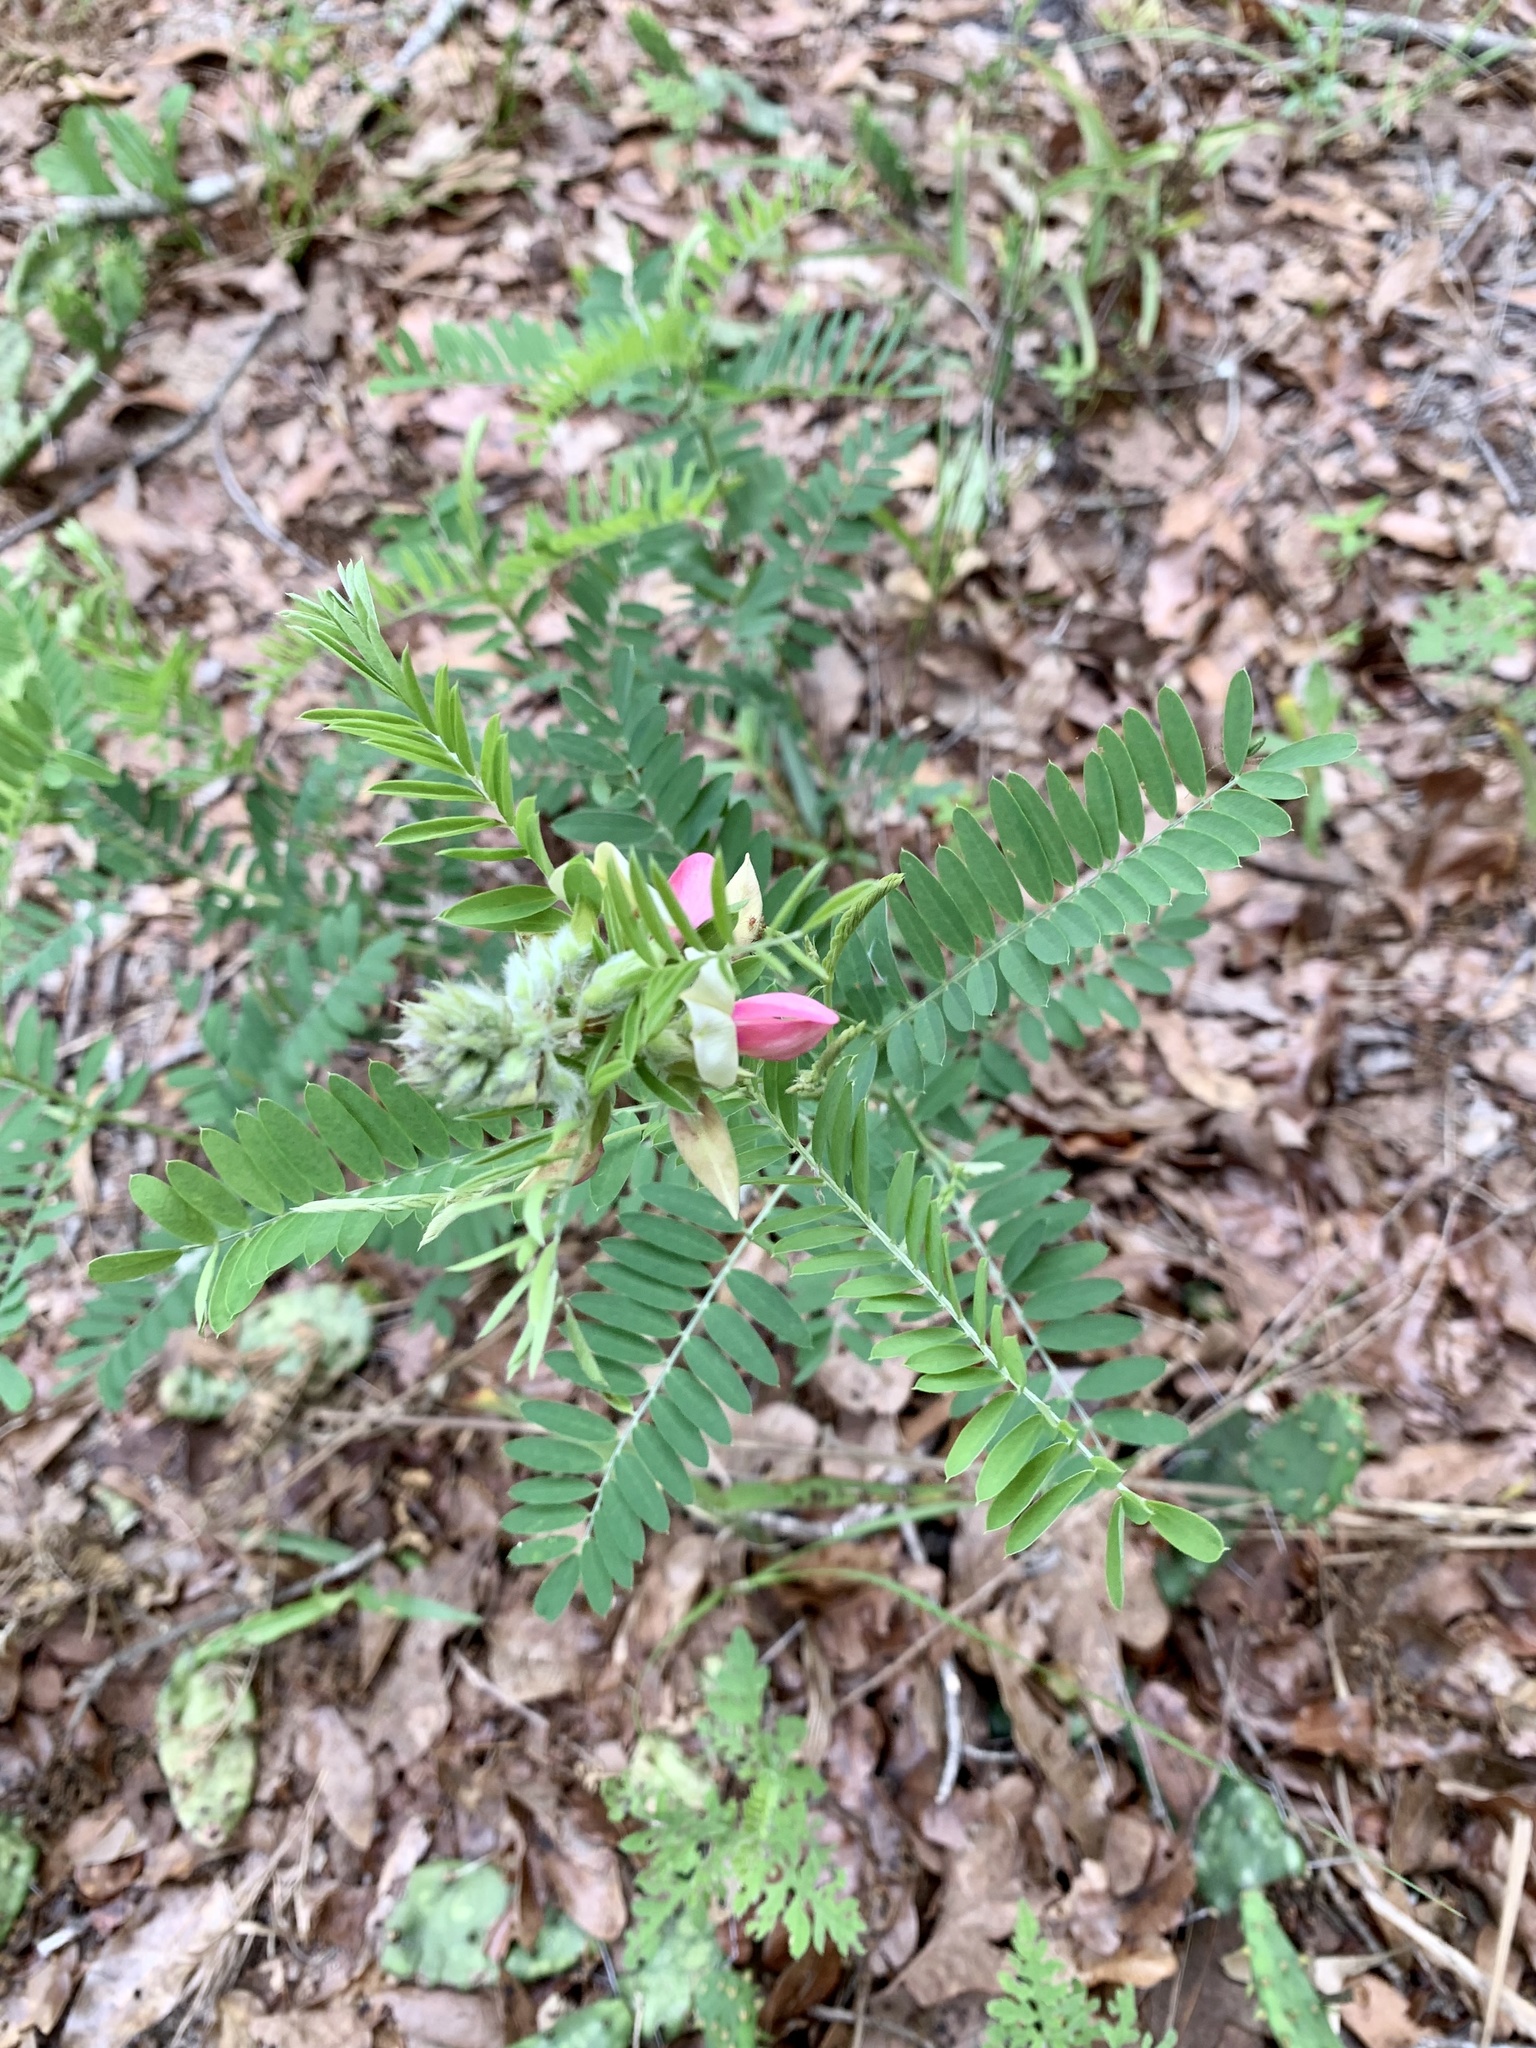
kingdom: Plantae
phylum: Tracheophyta
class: Magnoliopsida
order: Fabales
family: Fabaceae
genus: Tephrosia
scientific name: Tephrosia virginiana
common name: Rabbit-pea
